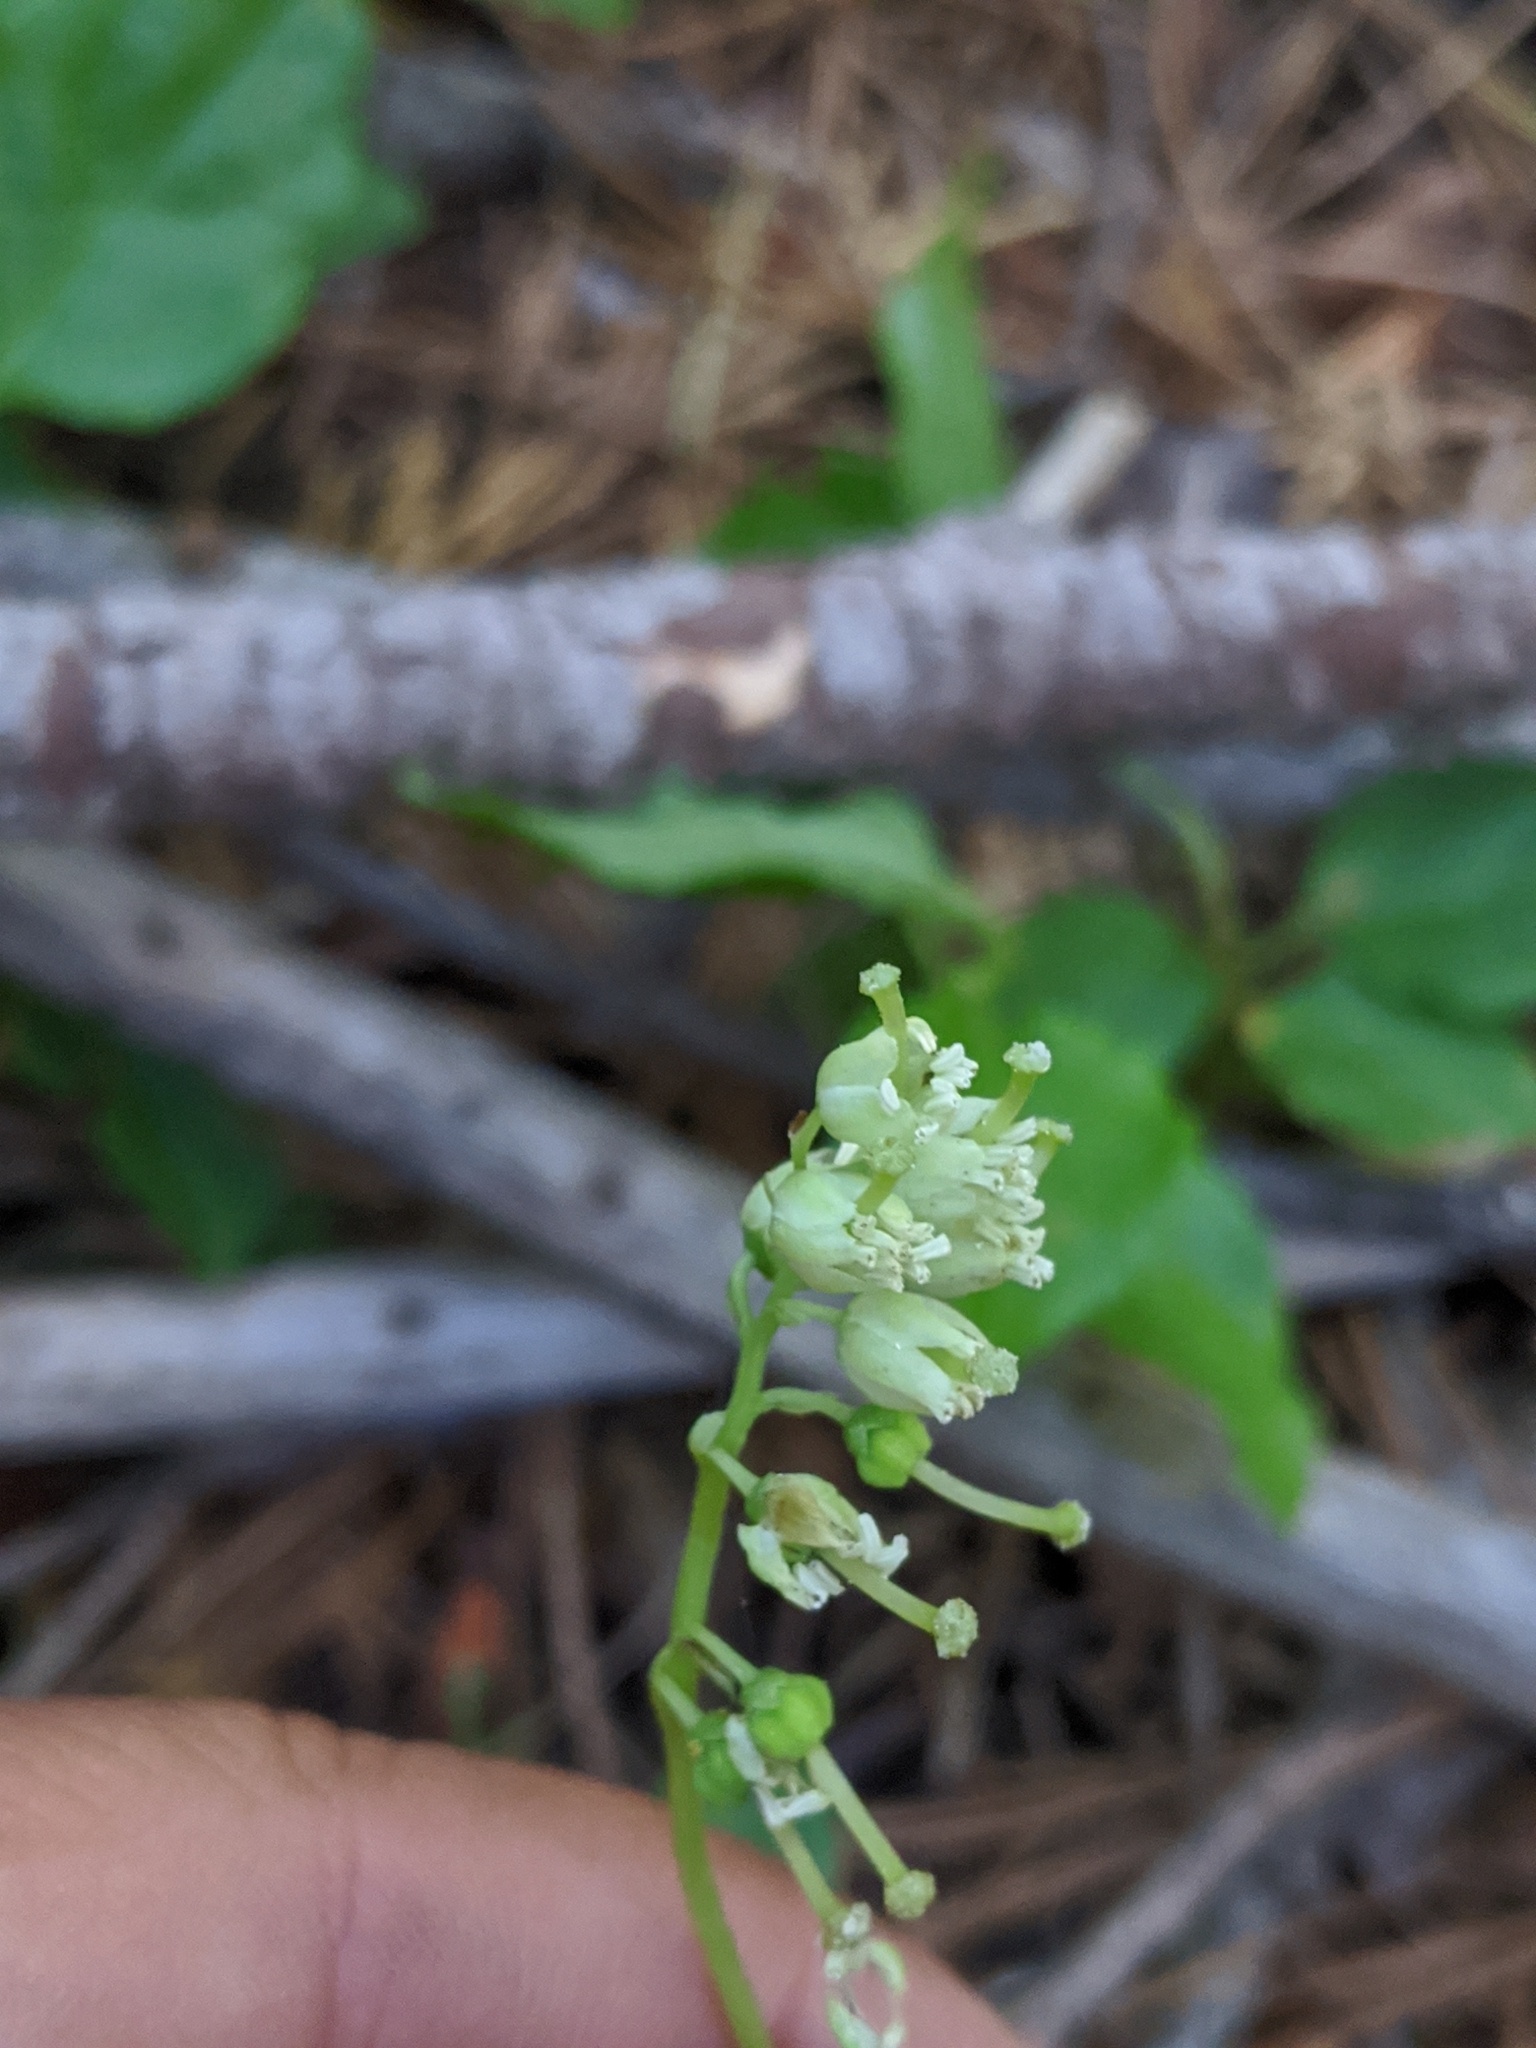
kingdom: Plantae
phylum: Tracheophyta
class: Magnoliopsida
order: Ericales
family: Ericaceae
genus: Orthilia
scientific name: Orthilia secunda
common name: One-sided orthilia
